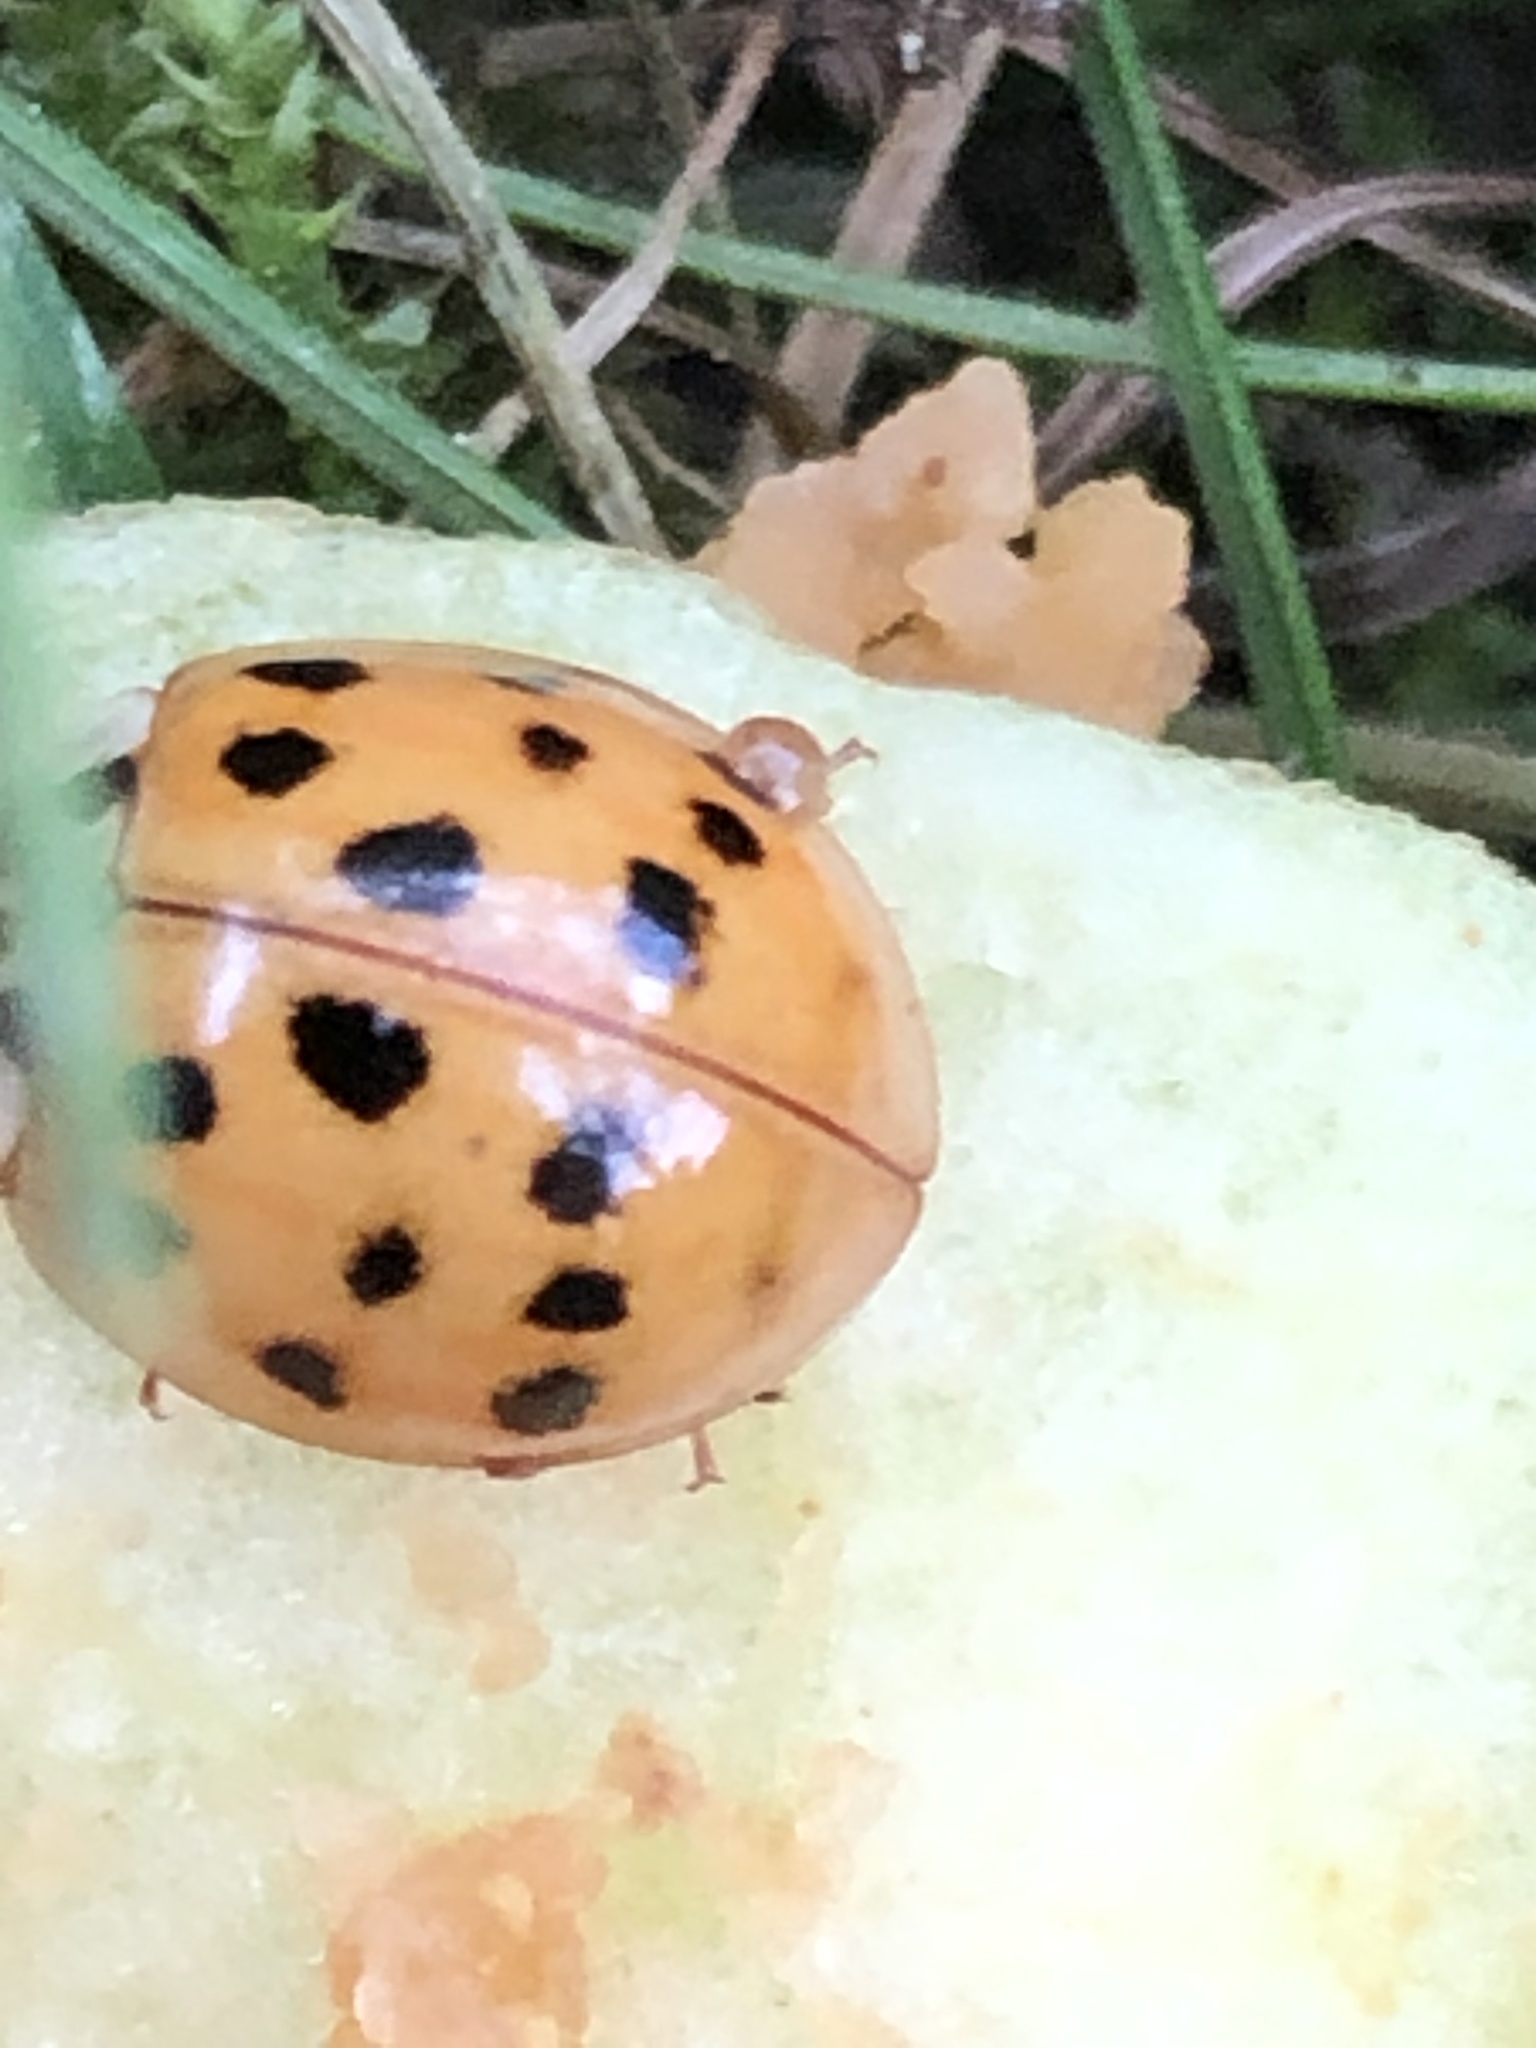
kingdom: Animalia
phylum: Arthropoda
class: Insecta
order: Coleoptera
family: Coccinellidae
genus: Harmonia
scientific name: Harmonia axyridis
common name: Harlequin ladybird
